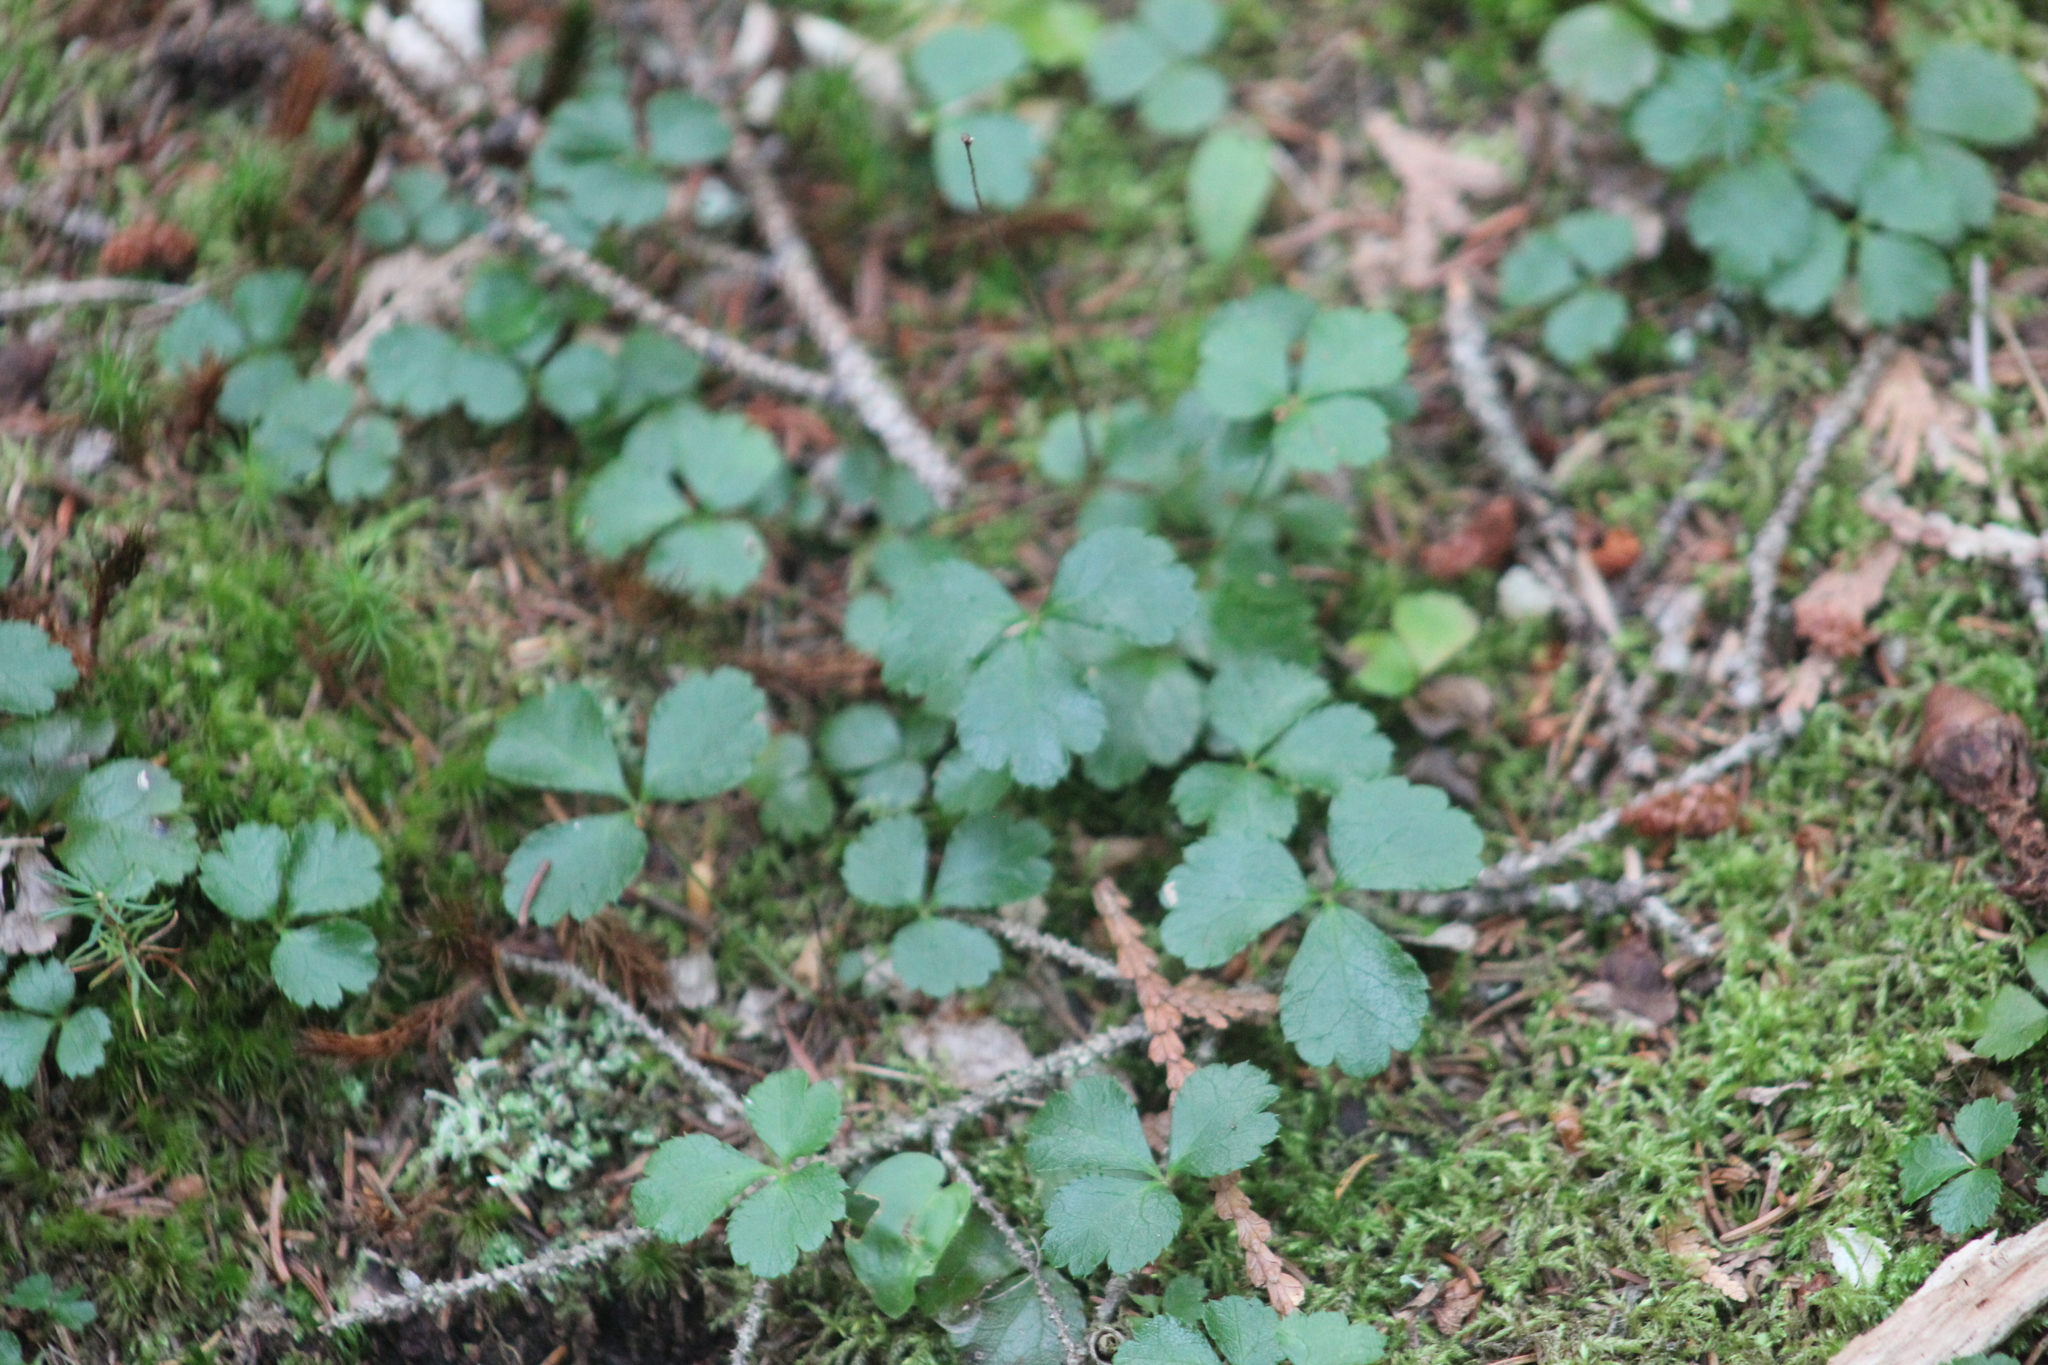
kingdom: Plantae
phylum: Tracheophyta
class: Magnoliopsida
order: Ranunculales
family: Ranunculaceae
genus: Coptis
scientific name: Coptis trifolia
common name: Canker-root
